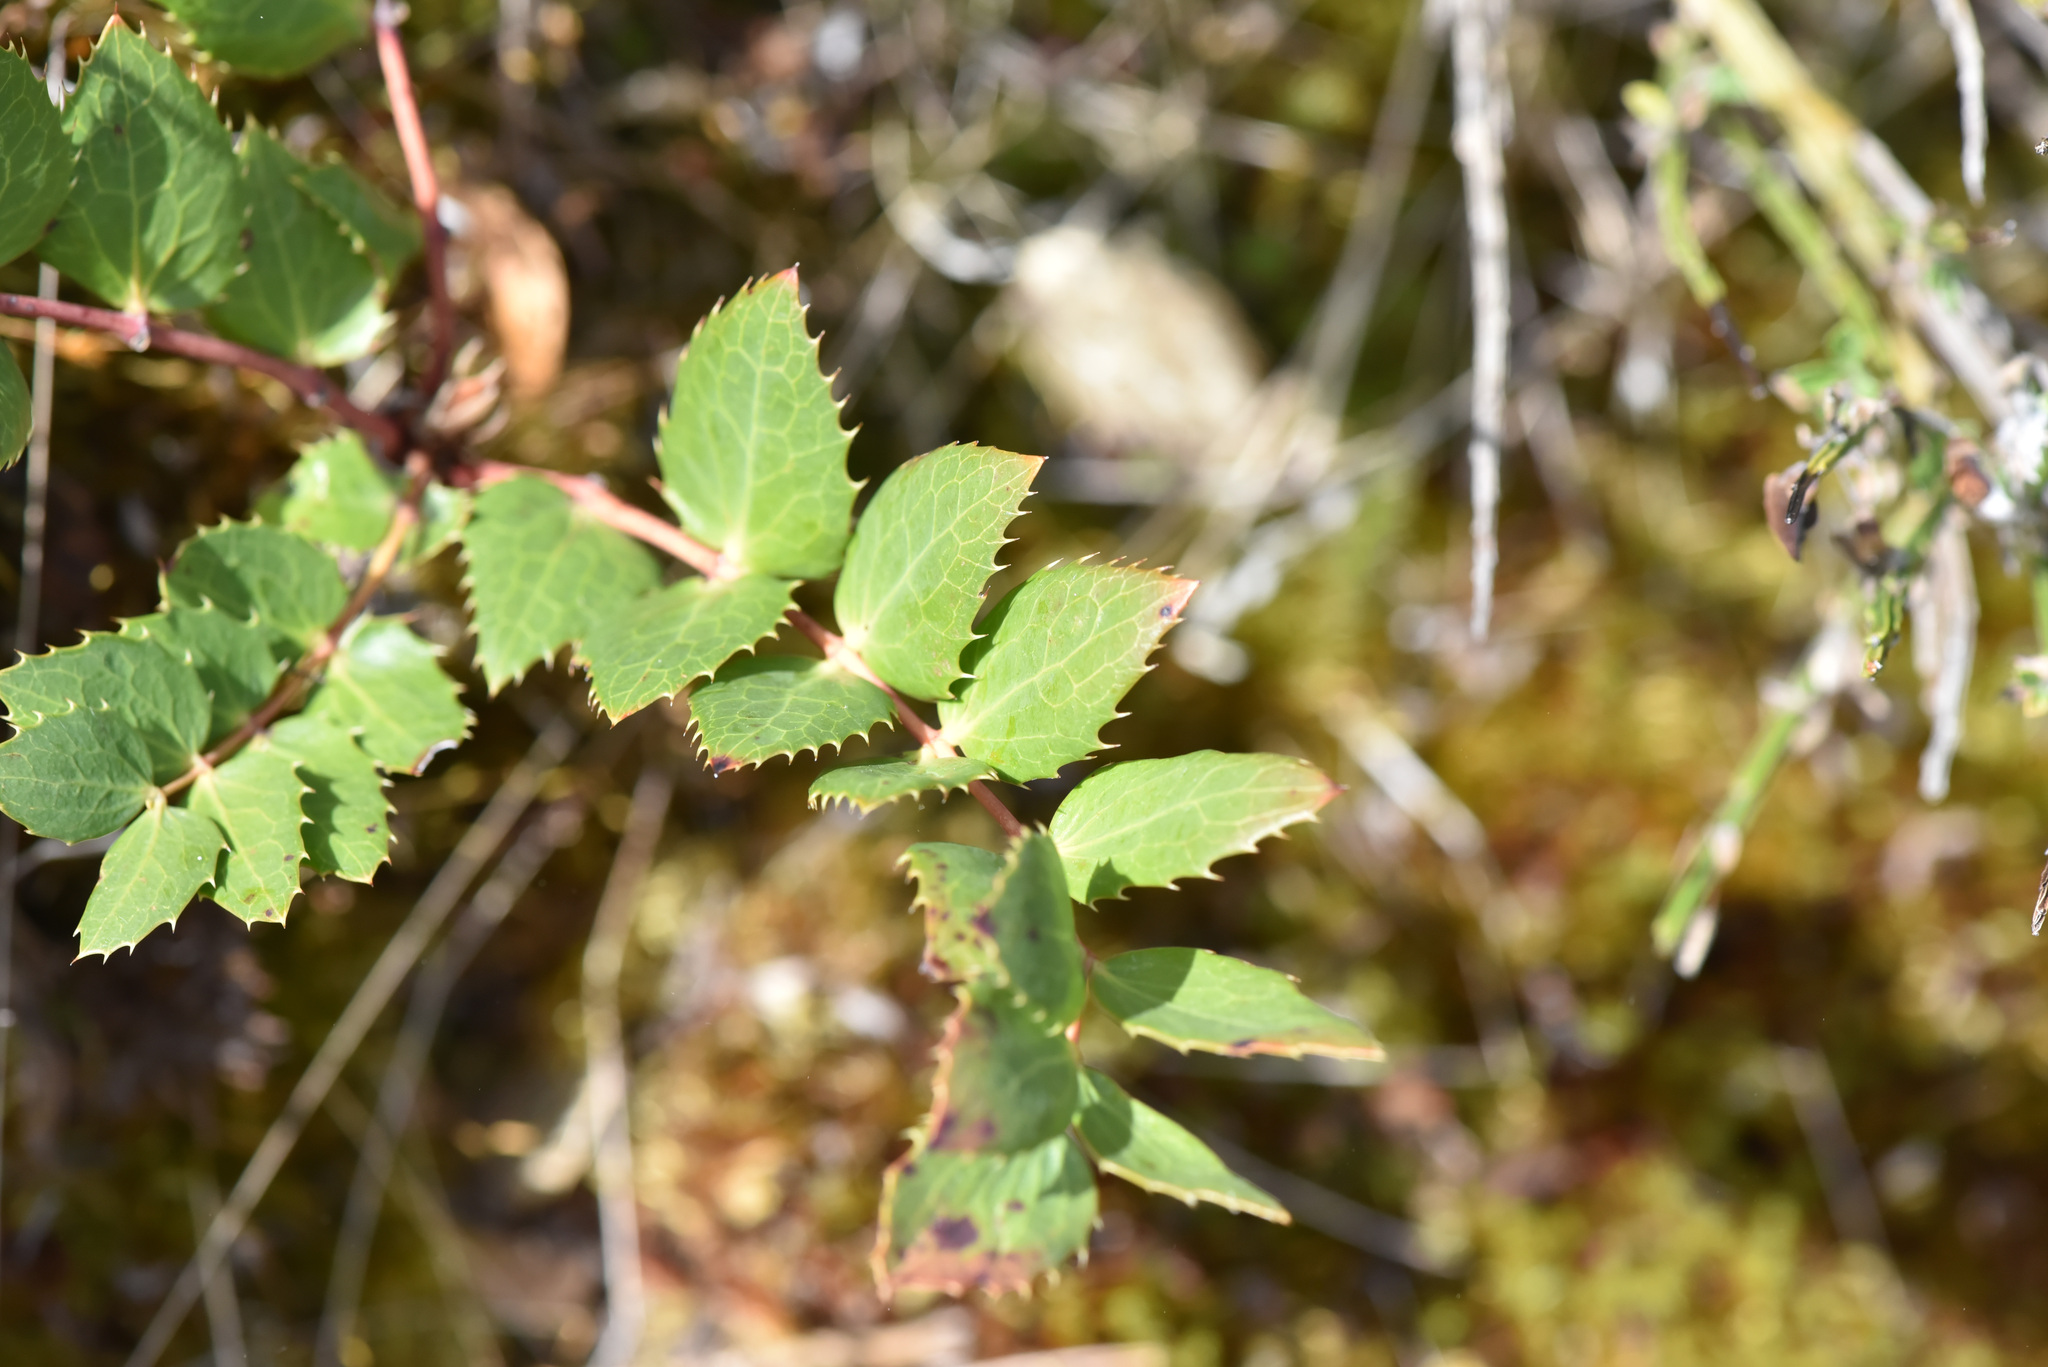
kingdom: Plantae
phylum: Tracheophyta
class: Magnoliopsida
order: Ranunculales
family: Berberidaceae
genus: Mahonia
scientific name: Mahonia nervosa
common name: Cascade oregon-grape
